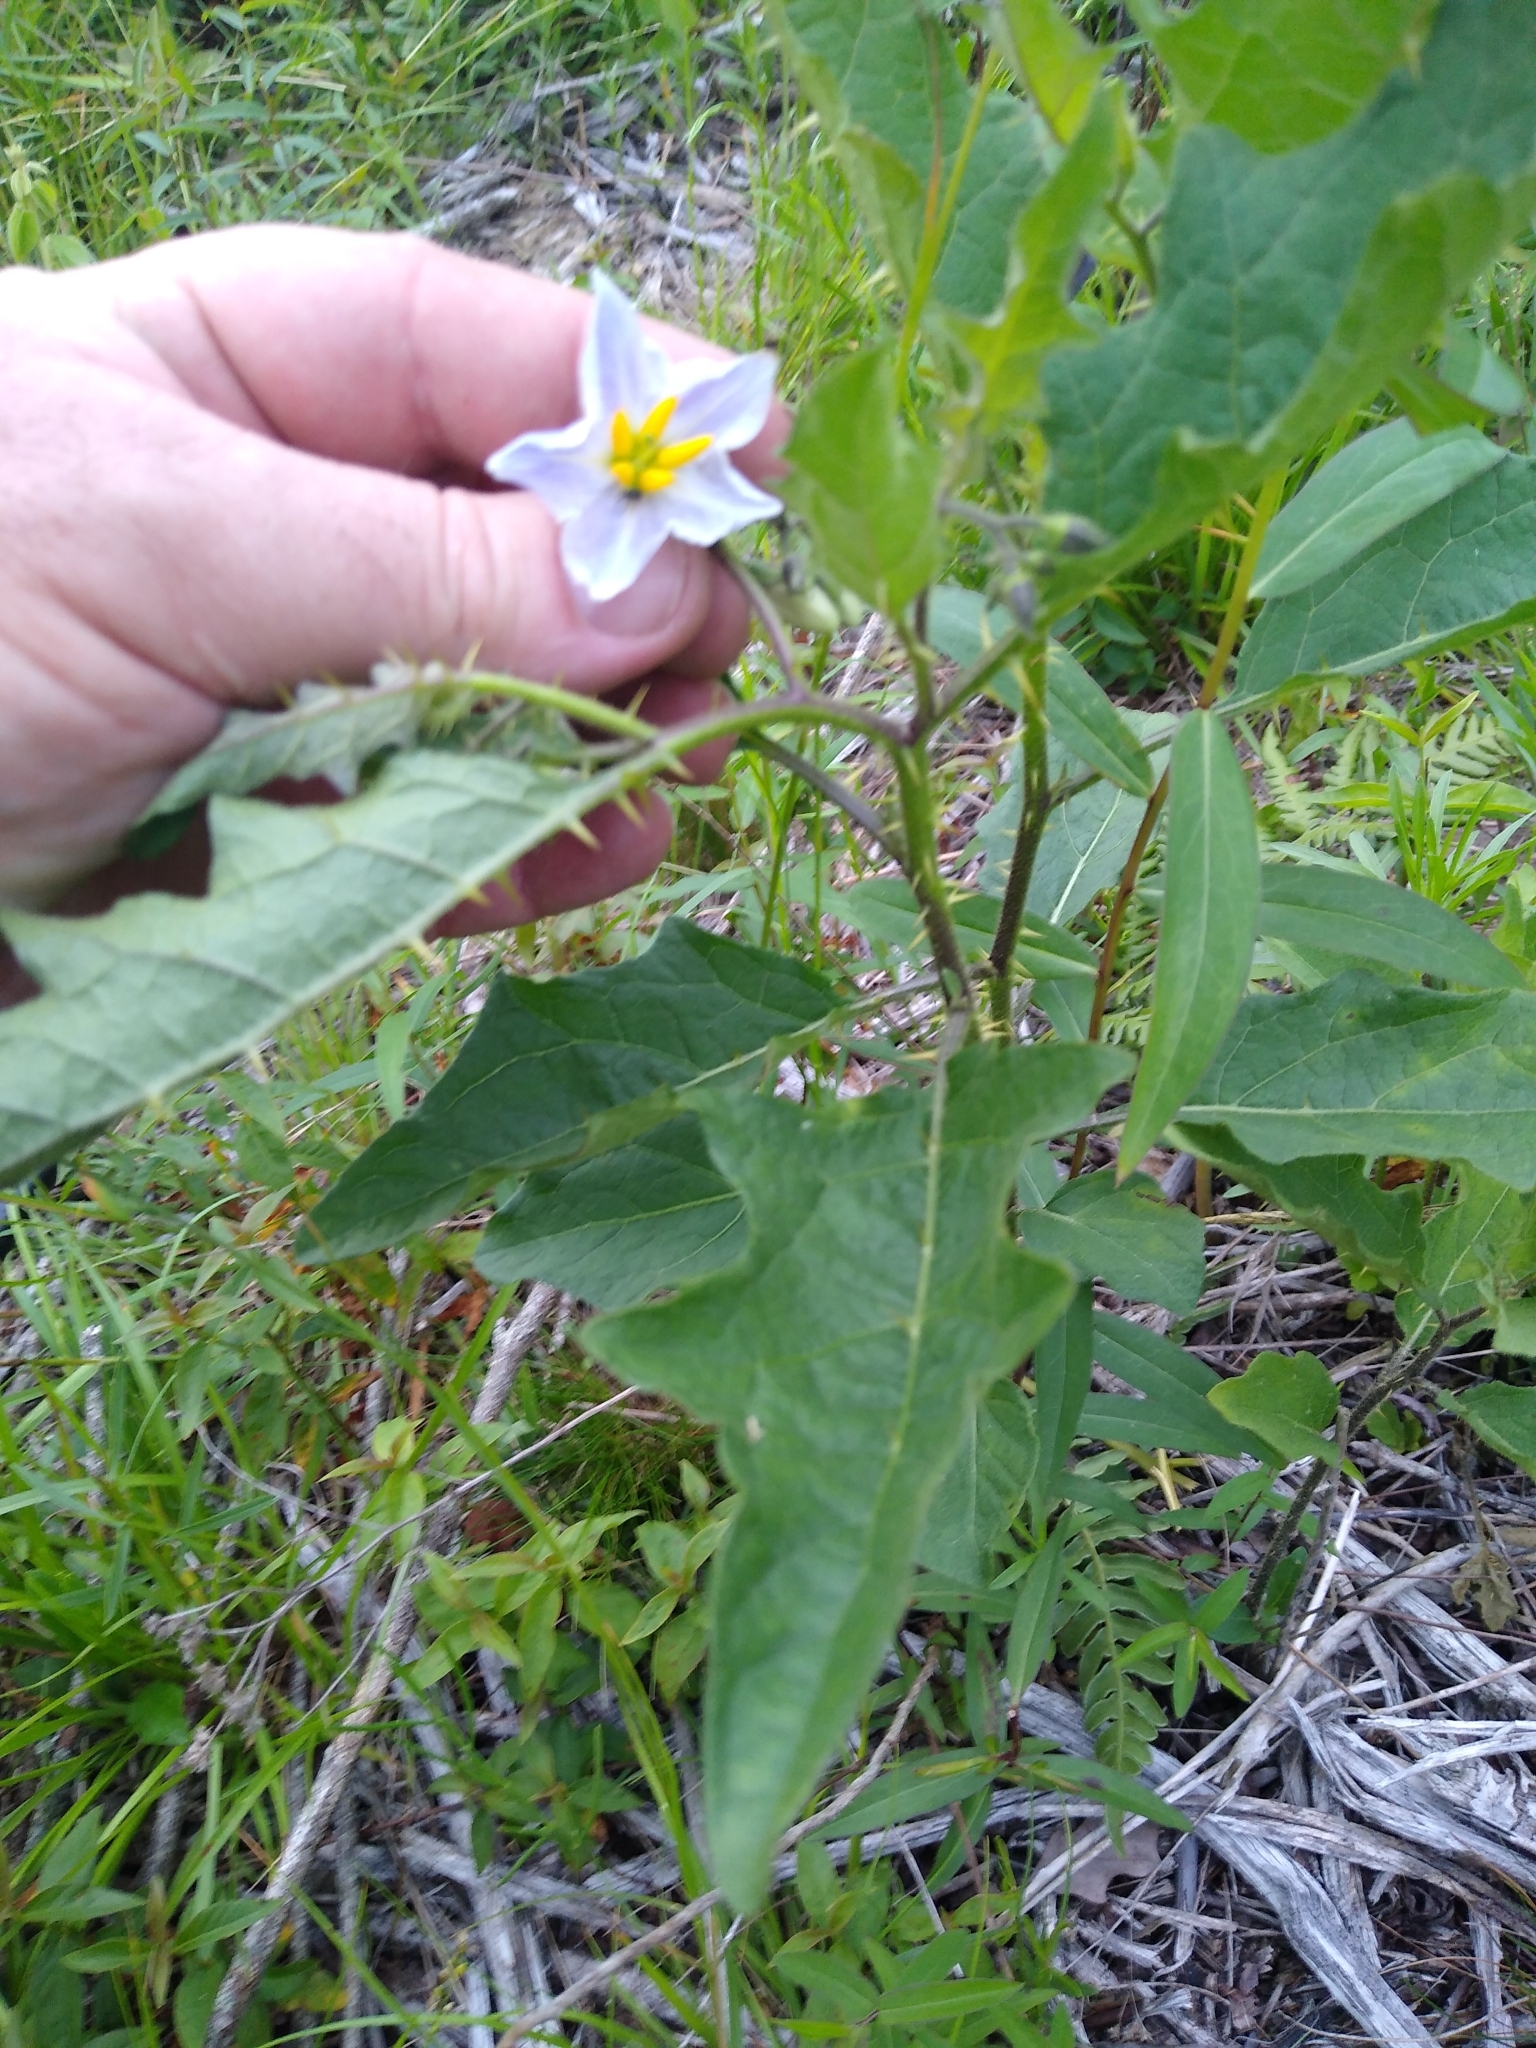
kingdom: Plantae
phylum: Tracheophyta
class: Magnoliopsida
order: Solanales
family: Solanaceae
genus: Solanum
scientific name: Solanum carolinense
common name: Horse-nettle
